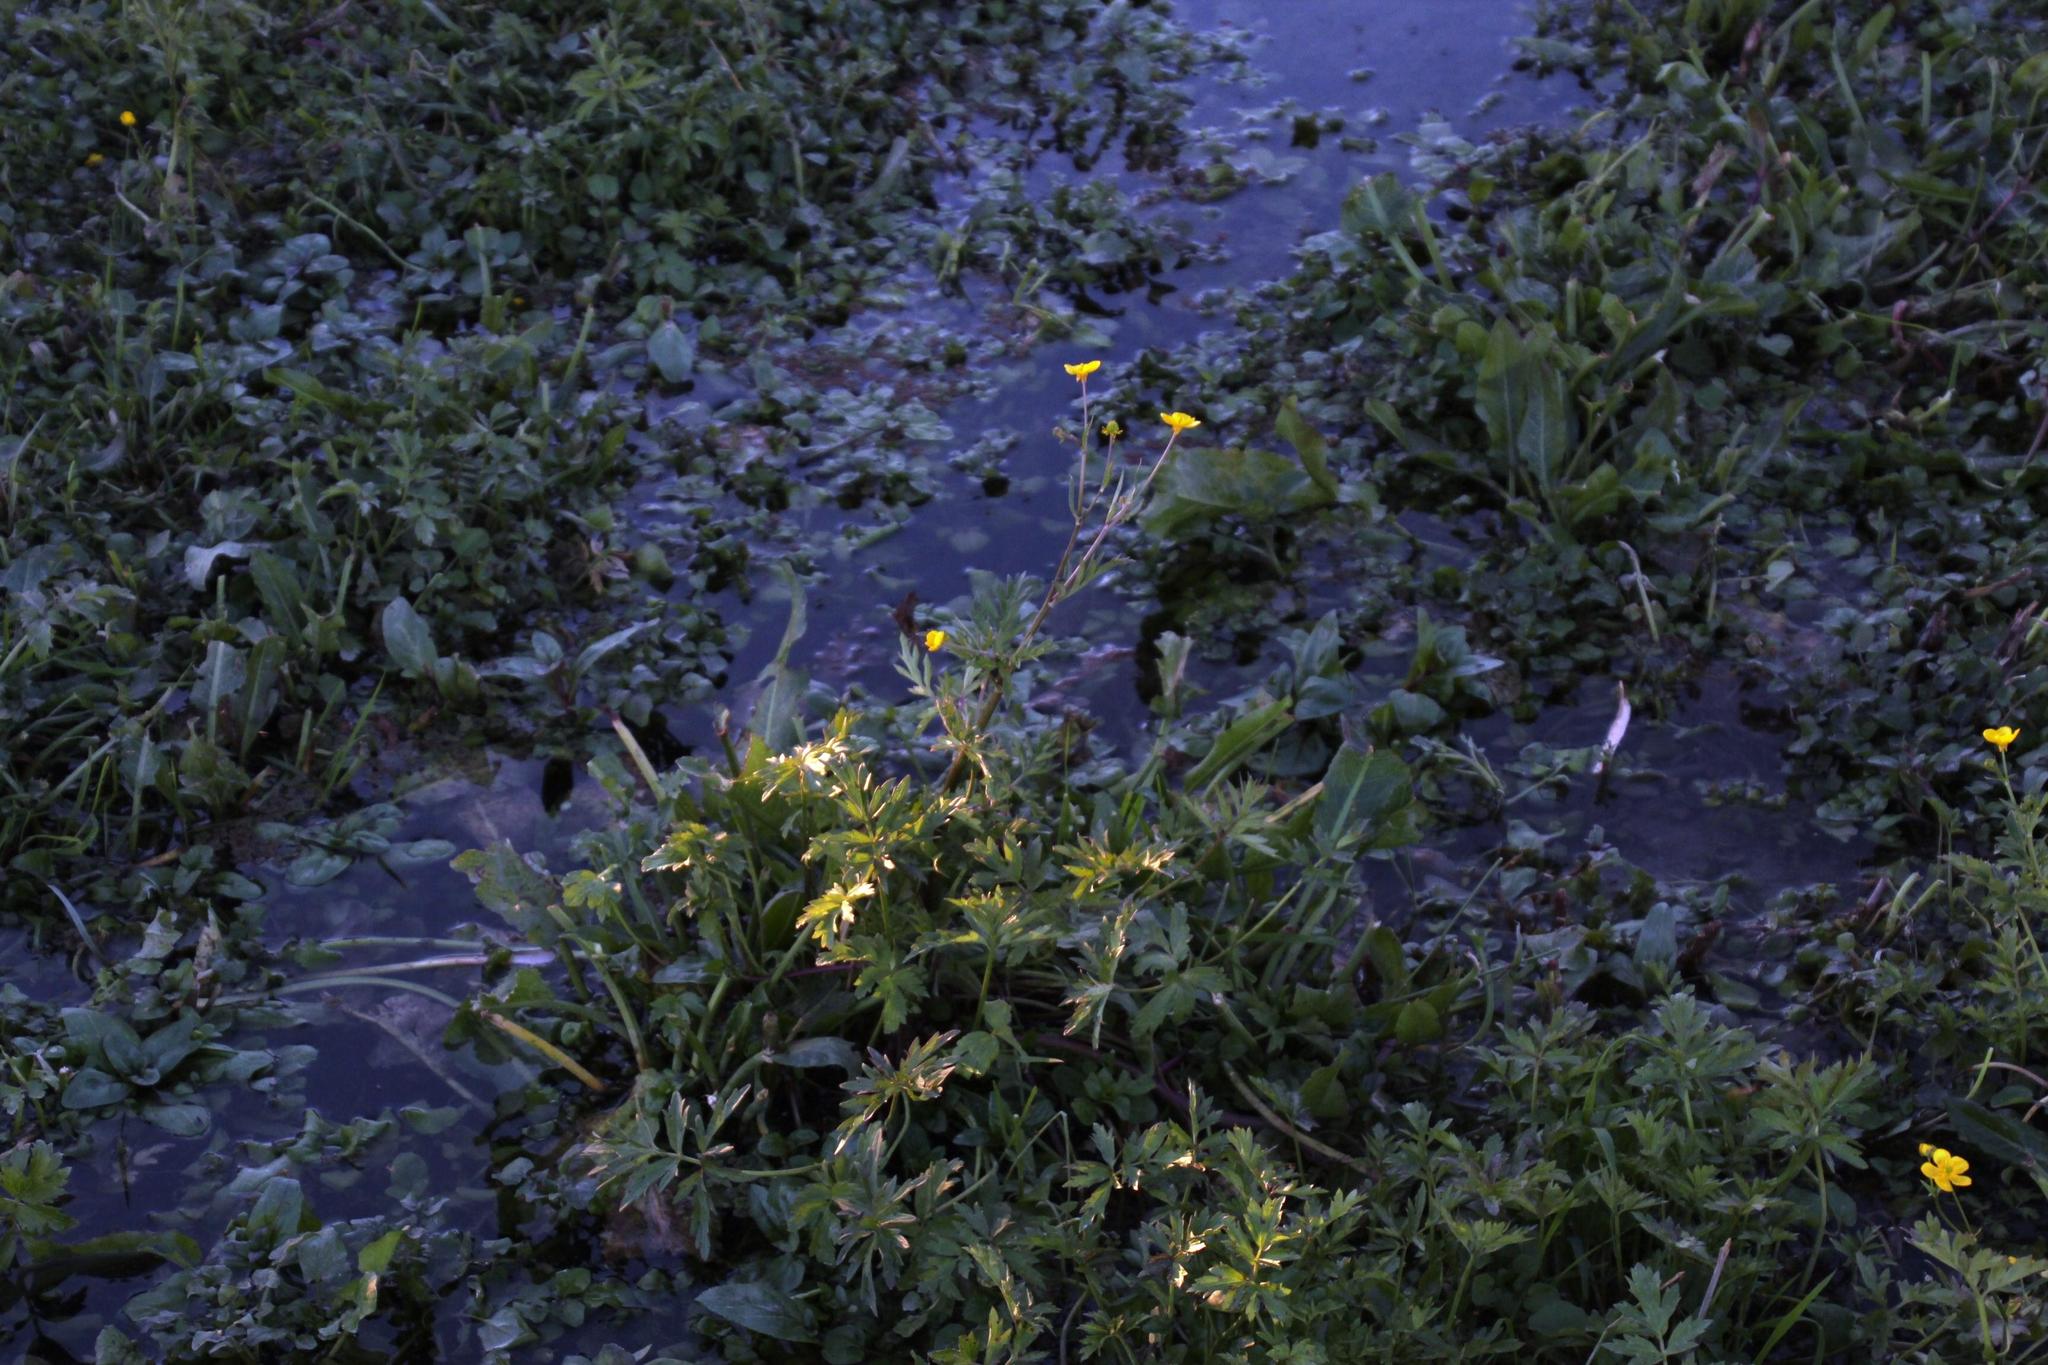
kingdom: Plantae
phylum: Tracheophyta
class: Magnoliopsida
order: Ranunculales
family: Ranunculaceae
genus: Ranunculus
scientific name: Ranunculus muricatus
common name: Rough-fruited buttercup
